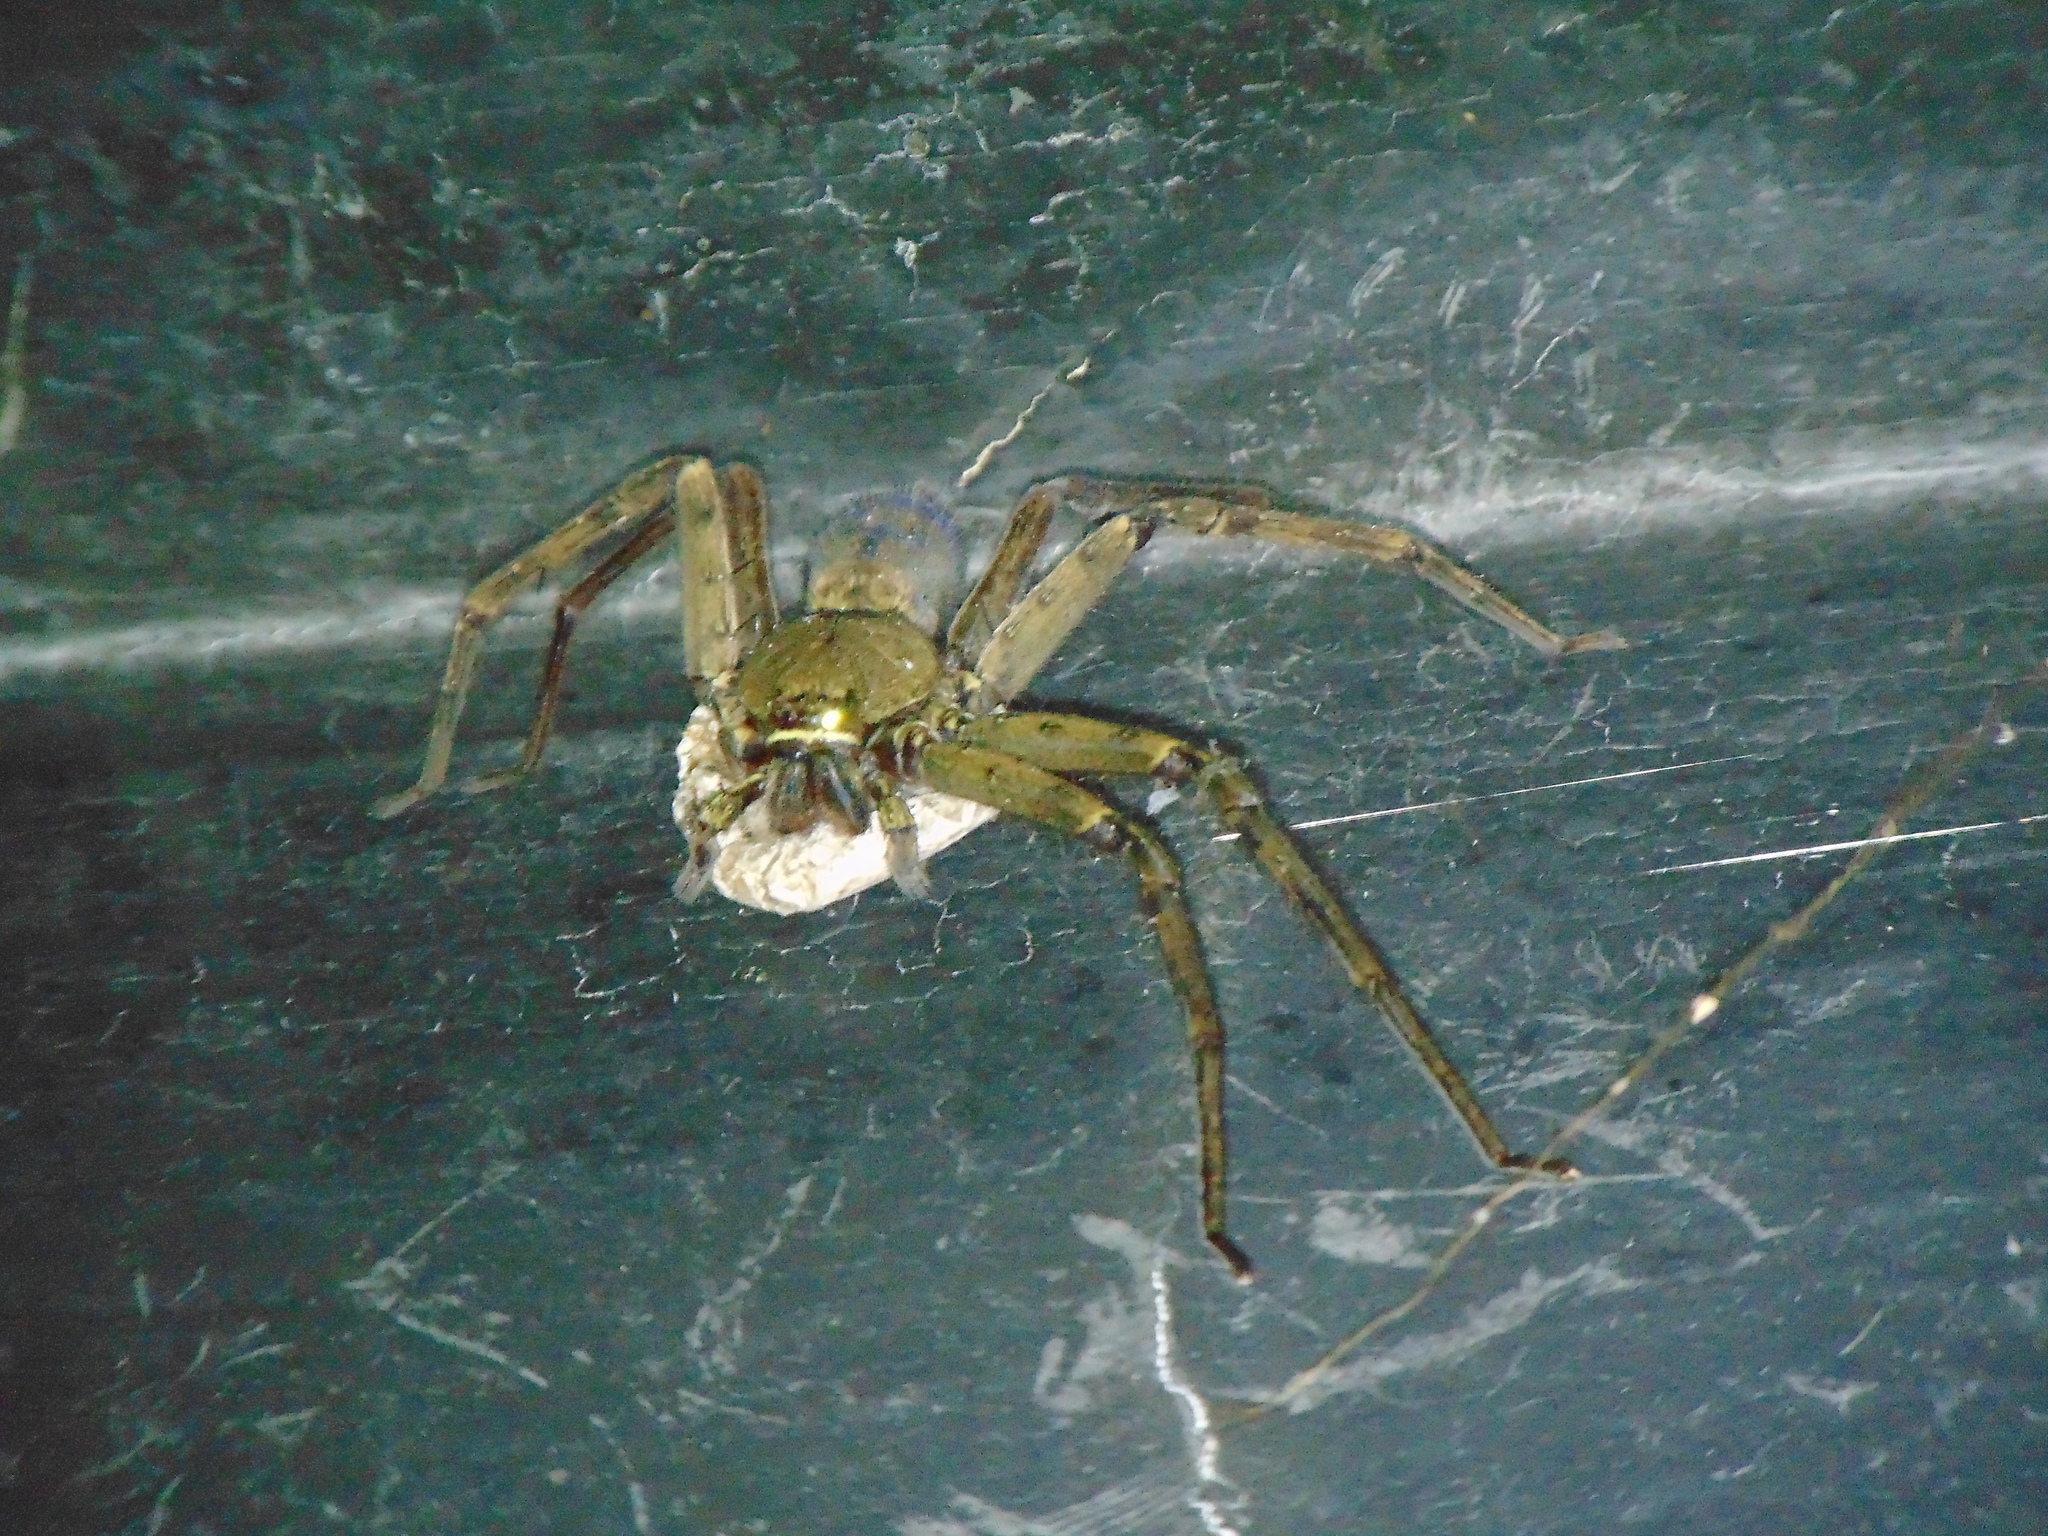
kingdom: Animalia
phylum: Arthropoda
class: Arachnida
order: Araneae
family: Sparassidae
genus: Heteropoda
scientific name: Heteropoda venatoria
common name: Huntsman spider
